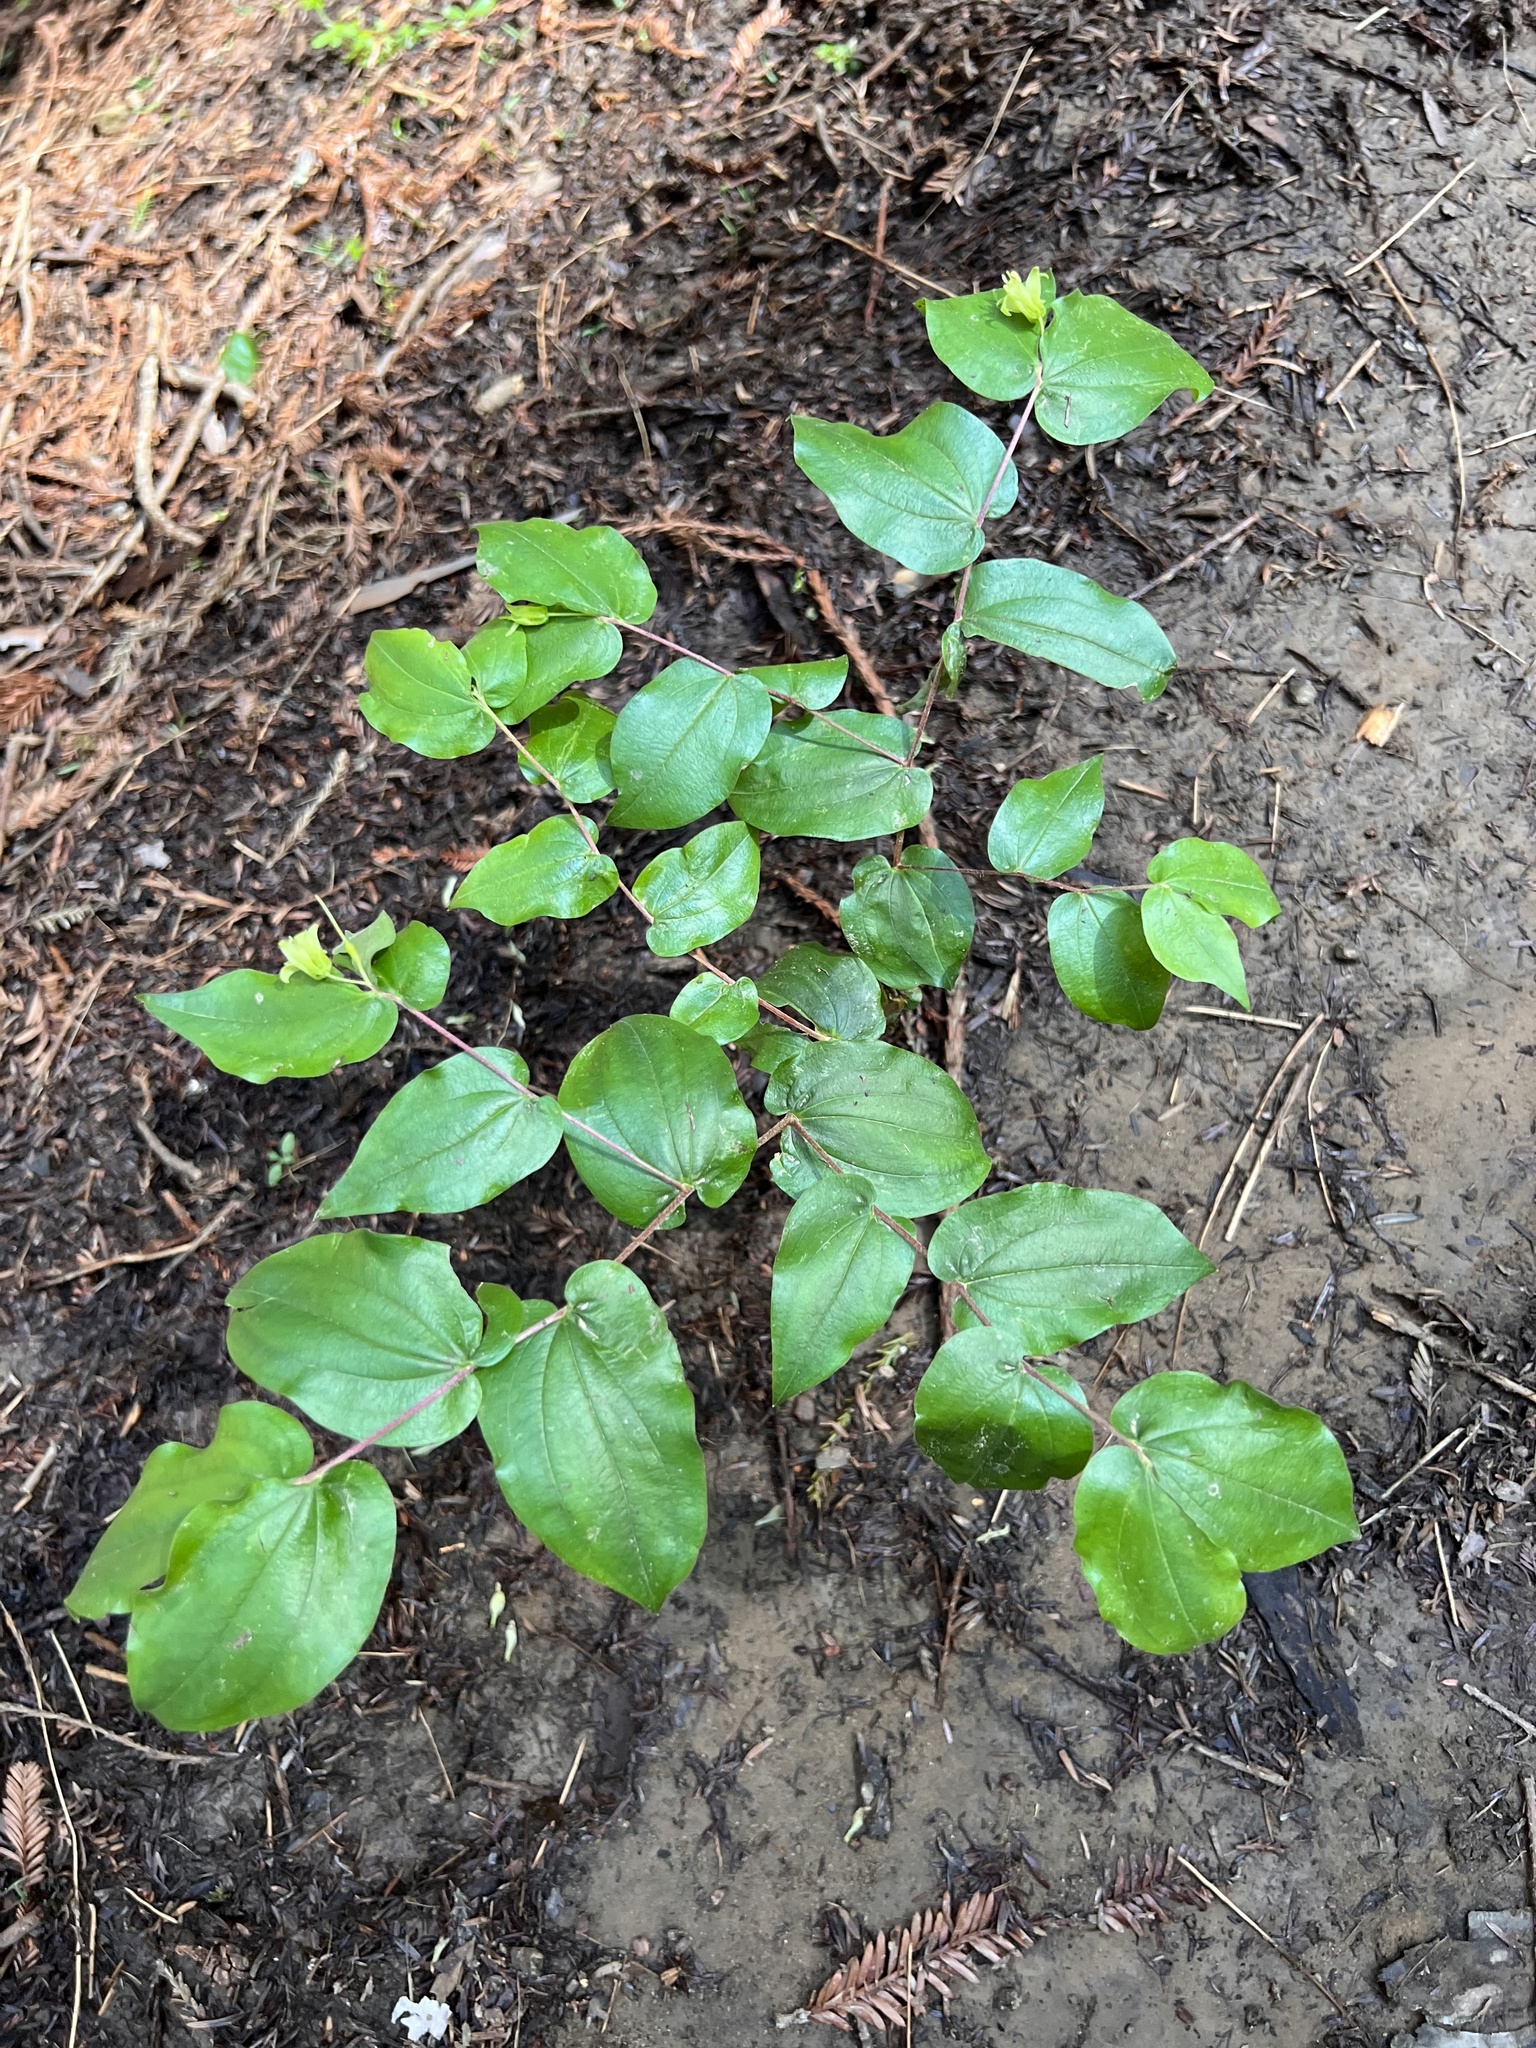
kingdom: Plantae
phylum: Tracheophyta
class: Liliopsida
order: Liliales
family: Liliaceae
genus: Prosartes
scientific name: Prosartes hookeri
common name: Fairy-bells
